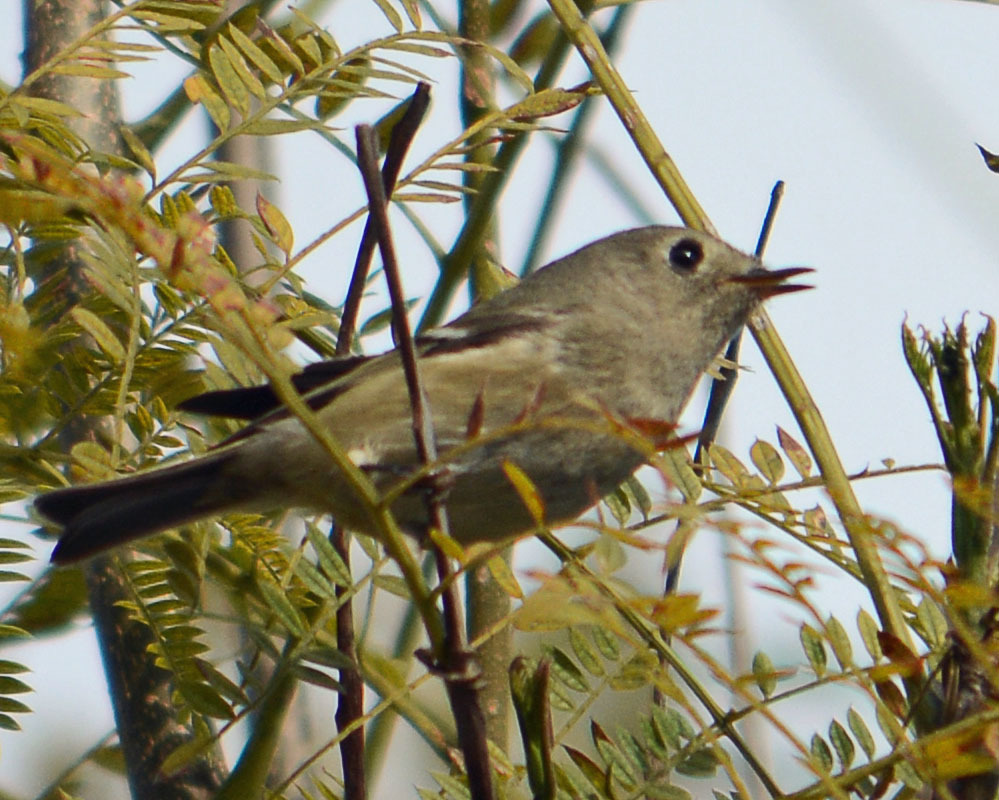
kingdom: Animalia
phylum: Chordata
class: Aves
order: Passeriformes
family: Regulidae
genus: Regulus
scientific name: Regulus calendula
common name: Ruby-crowned kinglet
